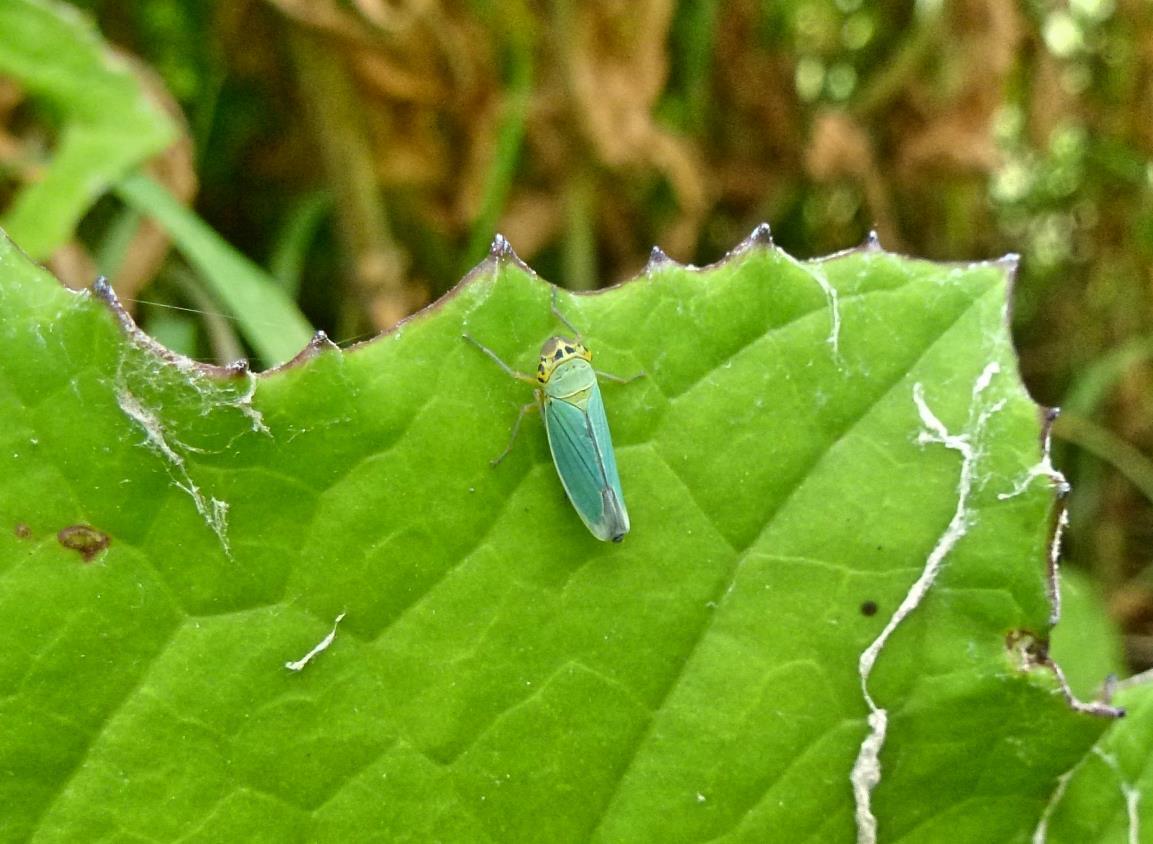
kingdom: Animalia
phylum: Arthropoda
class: Insecta
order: Hemiptera
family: Cicadellidae
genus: Cicadella
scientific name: Cicadella viridis
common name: Leafhopper
